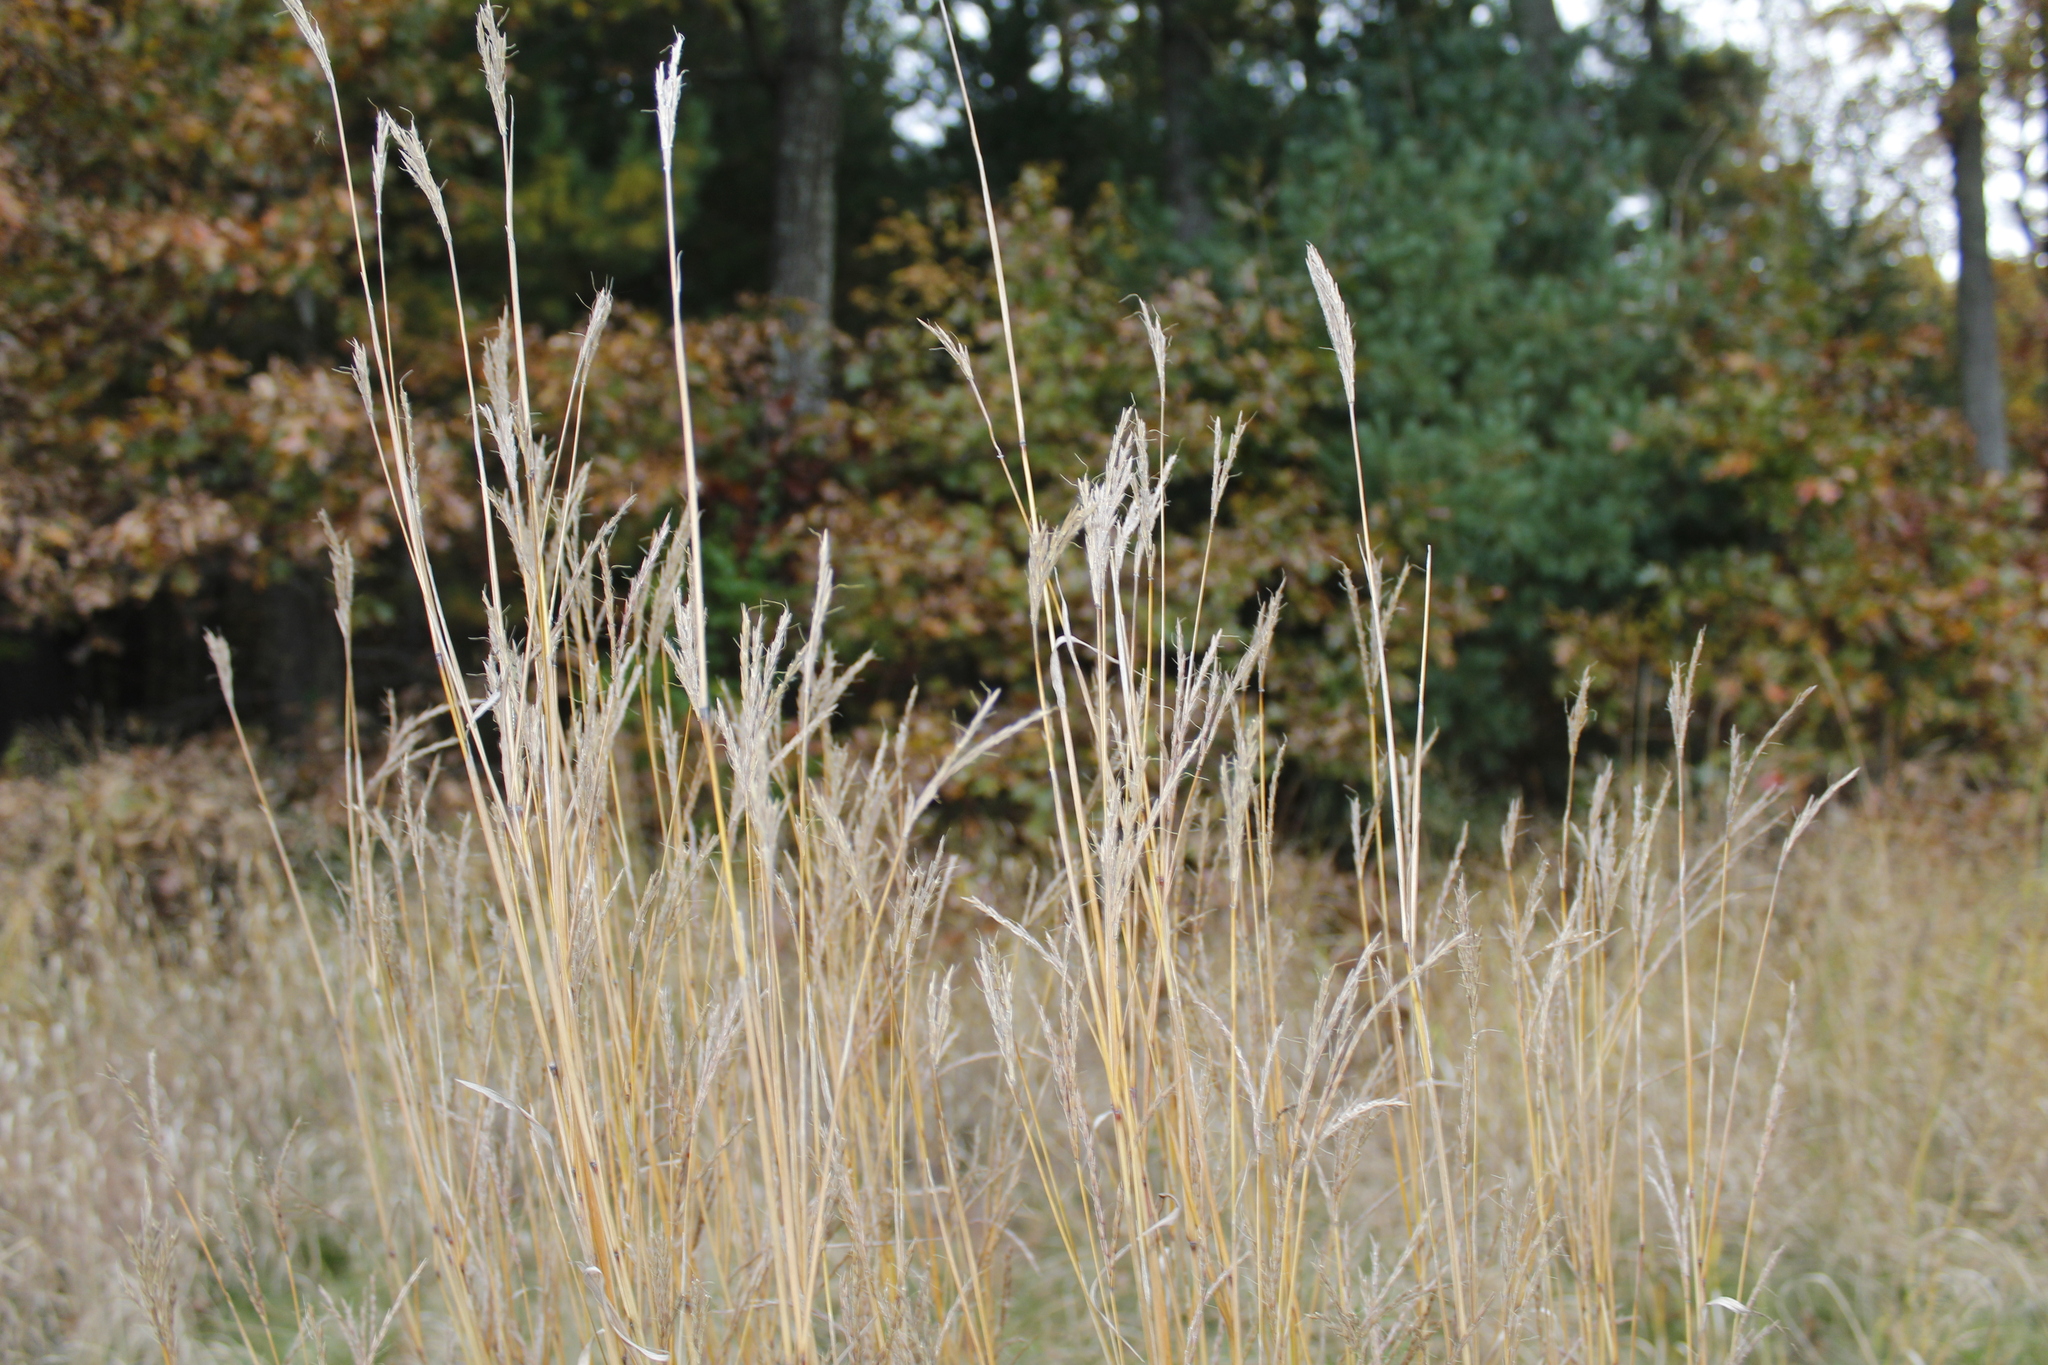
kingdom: Plantae
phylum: Tracheophyta
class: Liliopsida
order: Poales
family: Poaceae
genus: Andropogon
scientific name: Andropogon gerardi
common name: Big bluestem
